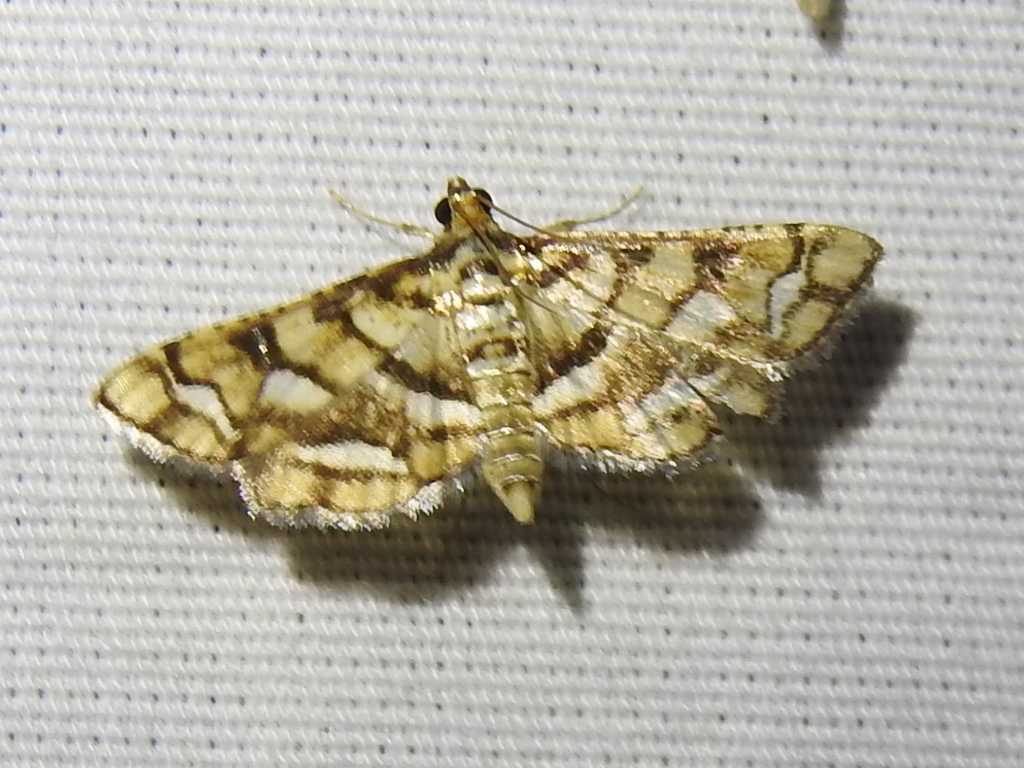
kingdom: Animalia
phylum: Arthropoda
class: Insecta
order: Lepidoptera
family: Crambidae
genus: Hileithia
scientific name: Hileithia magualis
